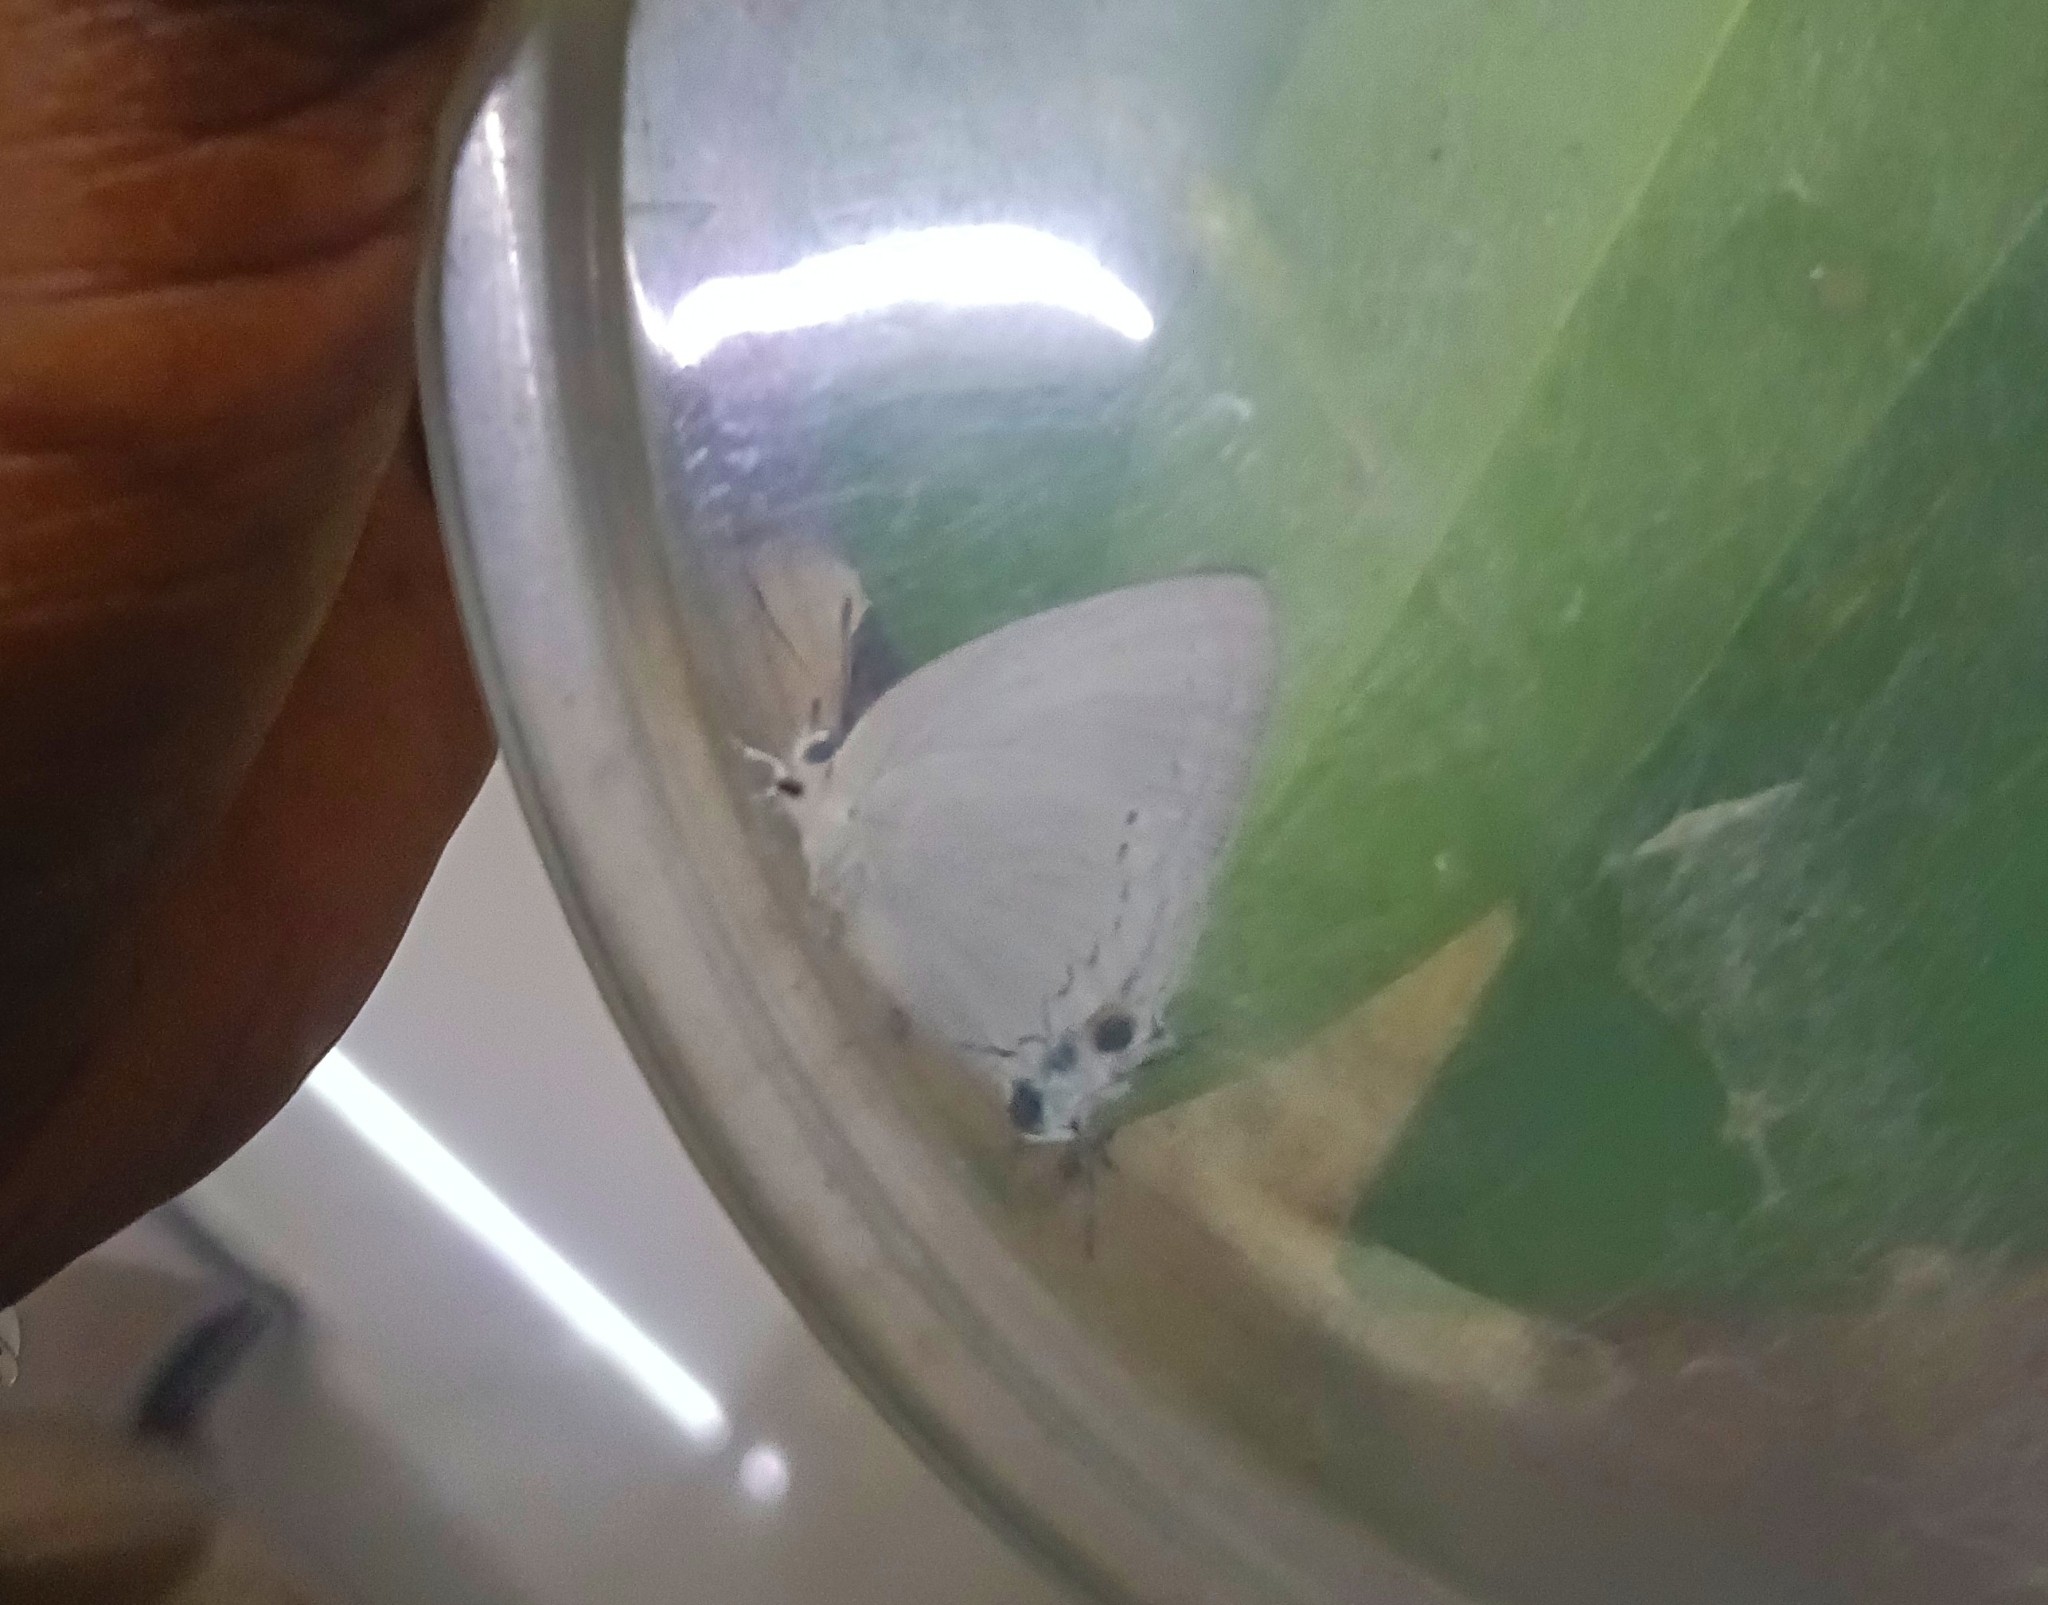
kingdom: Animalia
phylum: Arthropoda
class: Insecta
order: Lepidoptera
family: Lycaenidae
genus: Tajuria
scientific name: Tajuria cippus
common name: Peacock royal
